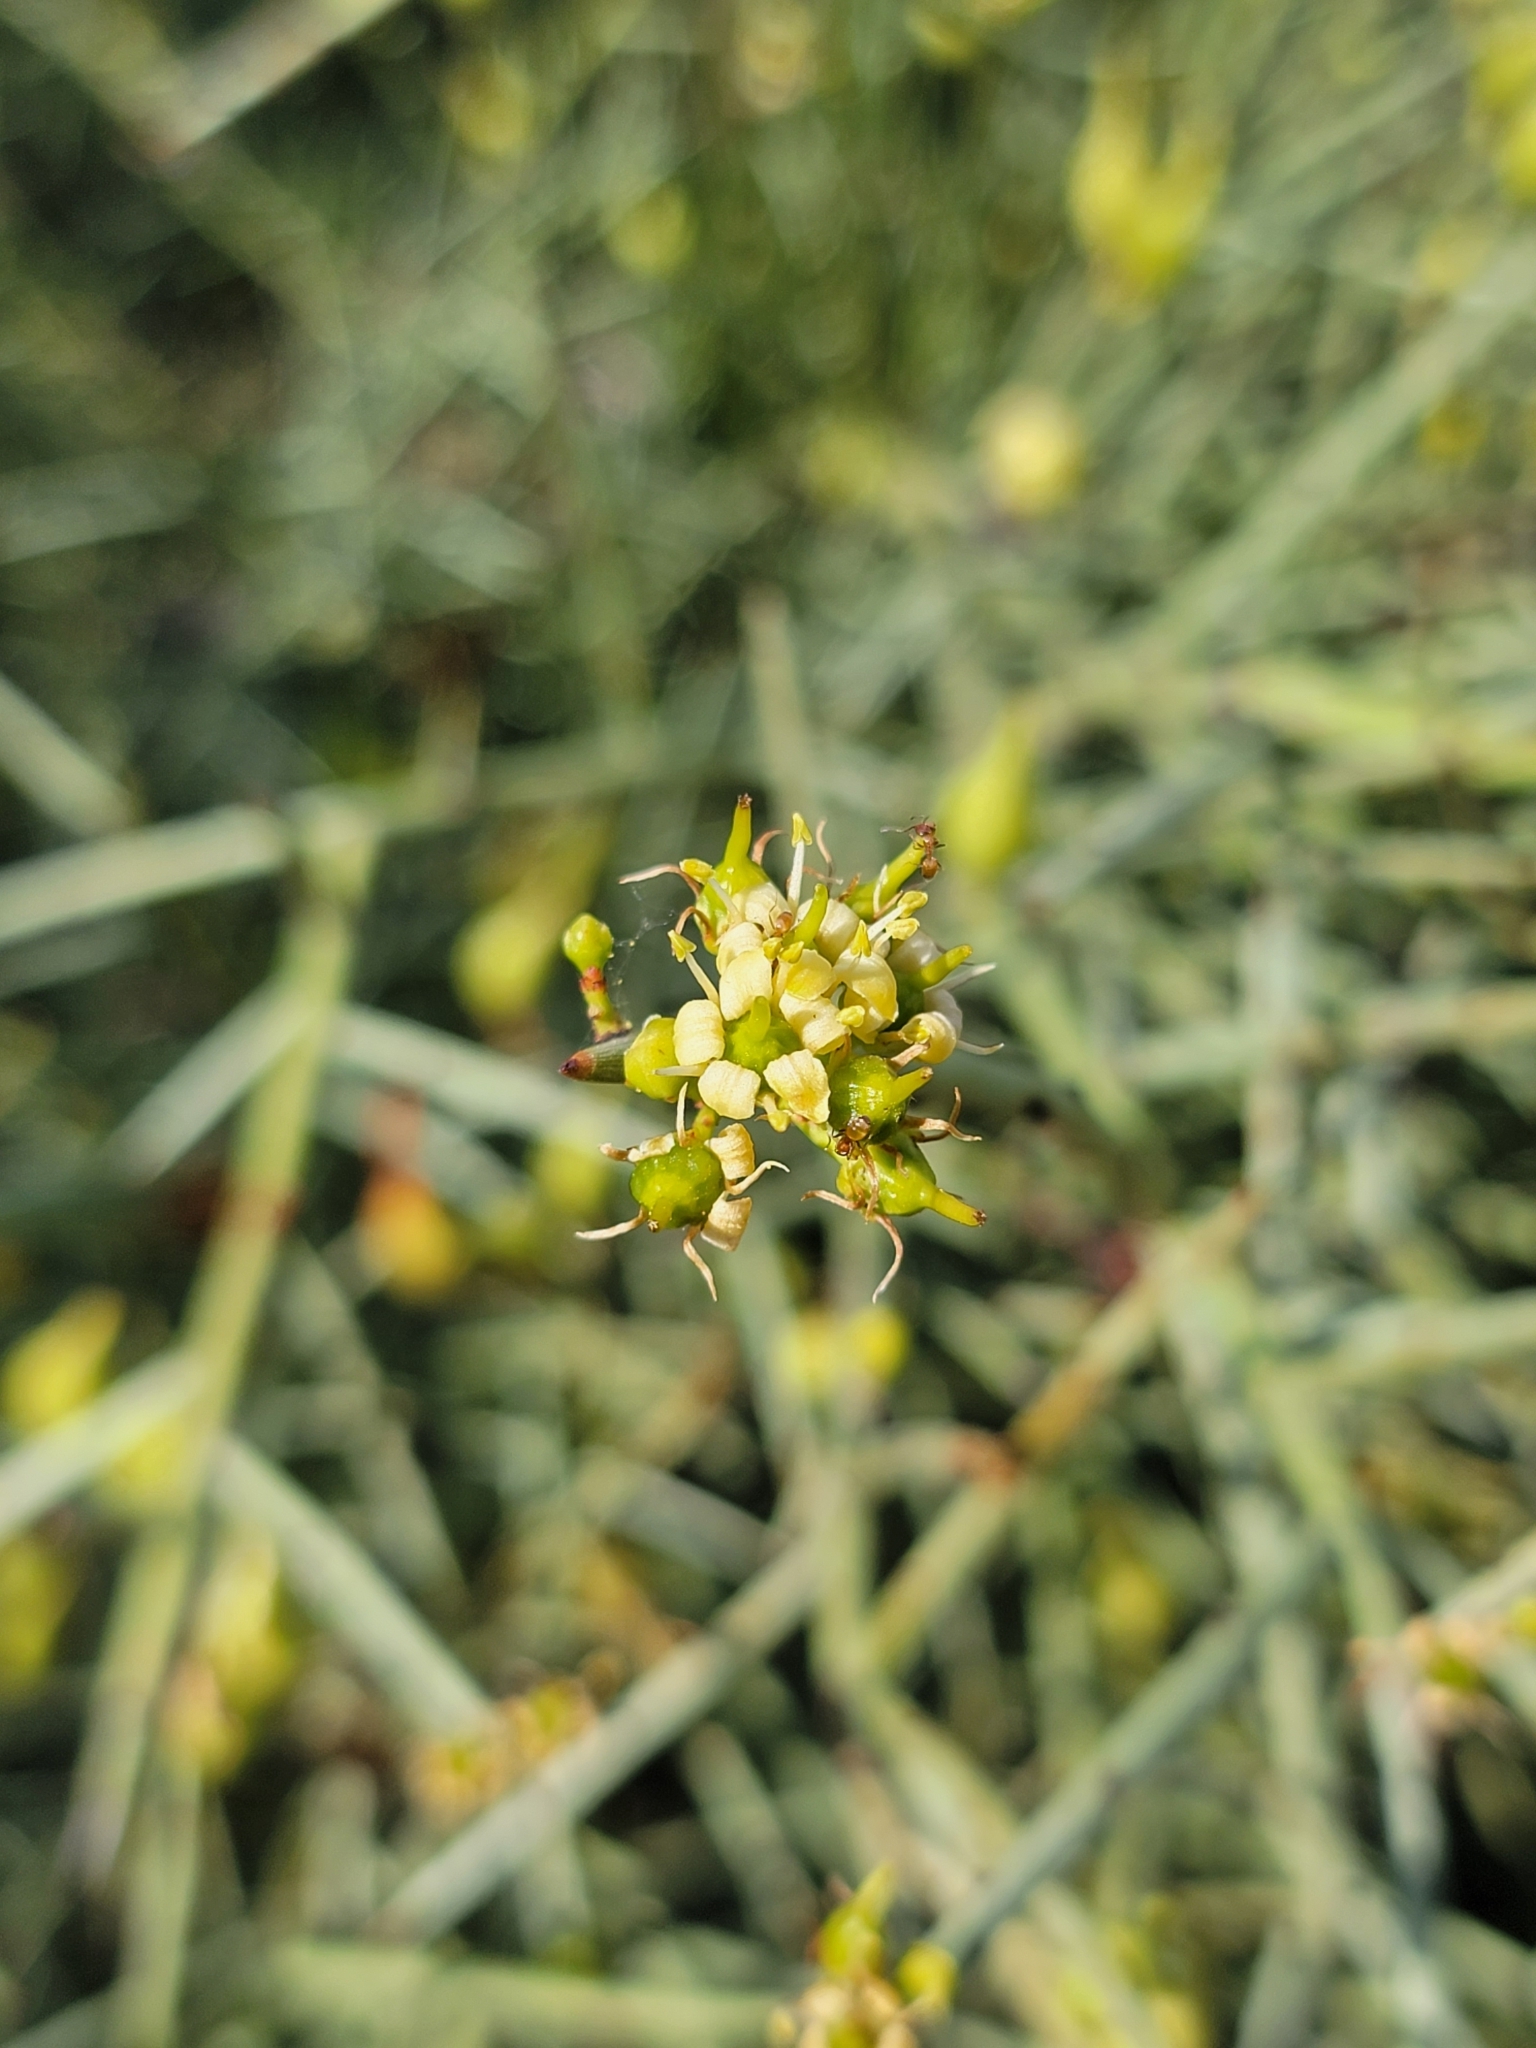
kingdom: Plantae
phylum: Tracheophyta
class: Magnoliopsida
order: Celastrales
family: Celastraceae
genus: Canotia
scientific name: Canotia holacantha
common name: Crucifixion thorns
